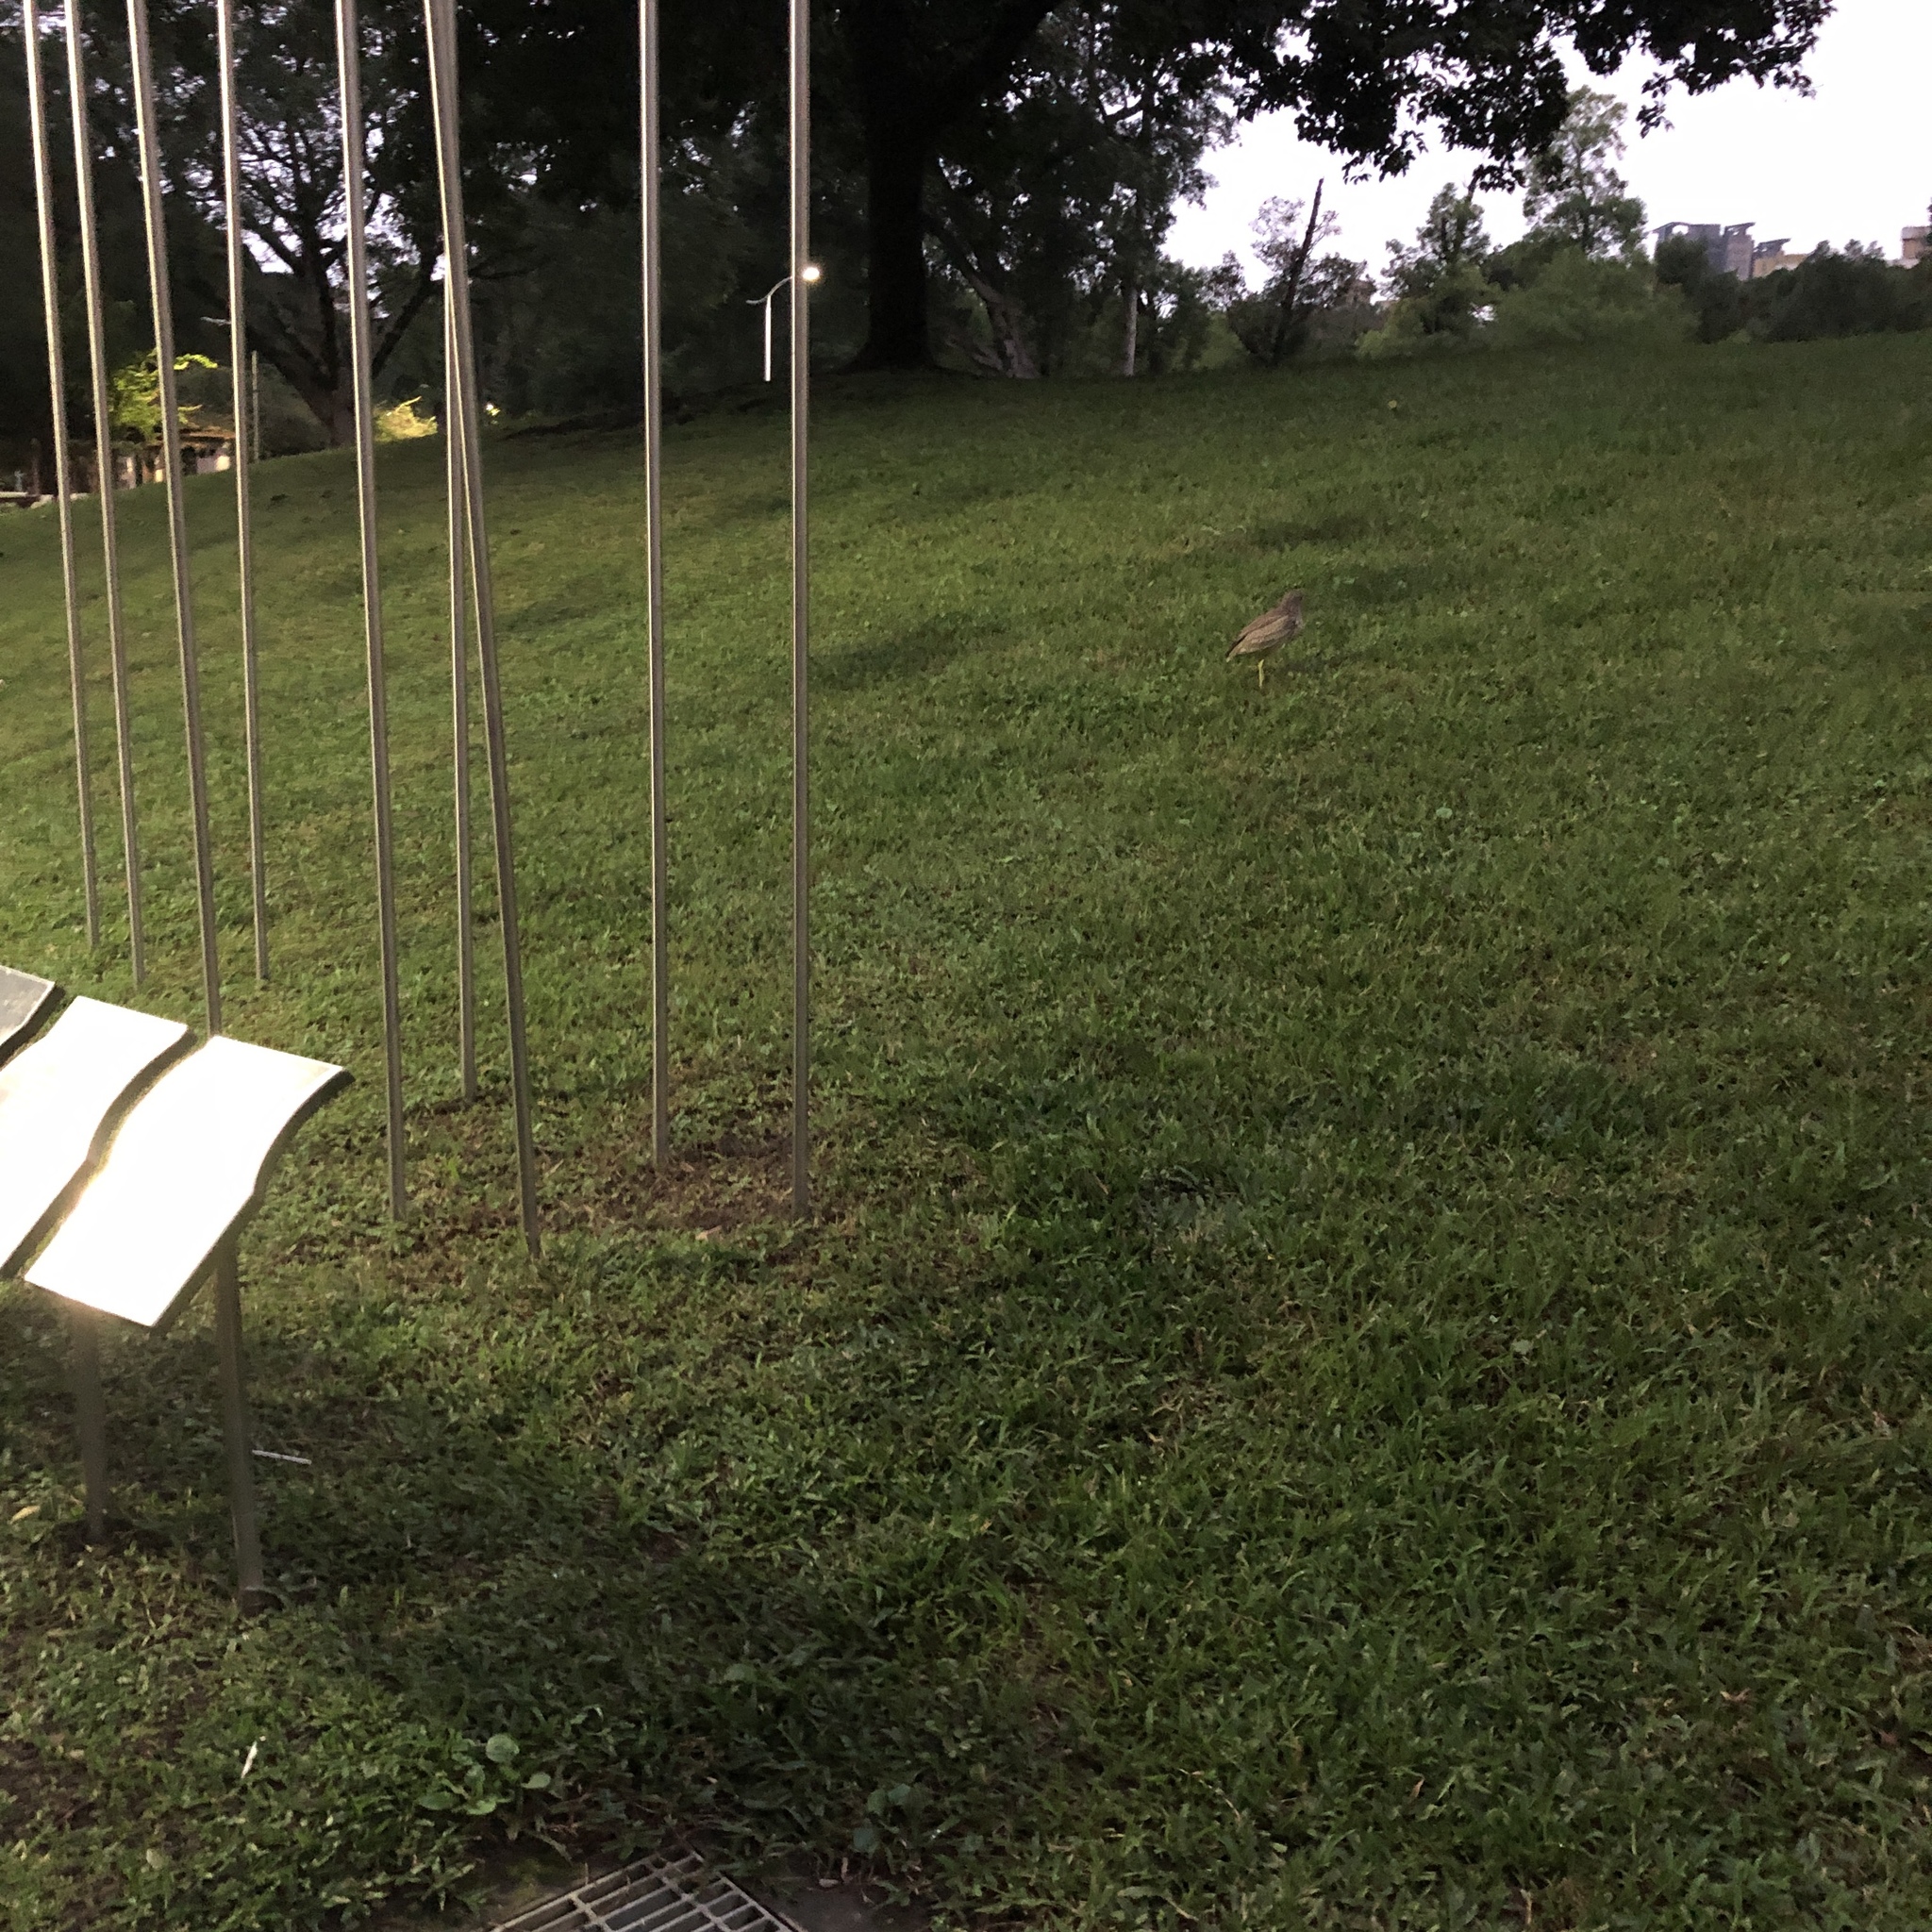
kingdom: Animalia
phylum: Chordata
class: Aves
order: Pelecaniformes
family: Ardeidae
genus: Nycticorax
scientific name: Nycticorax nycticorax
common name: Black-crowned night heron
